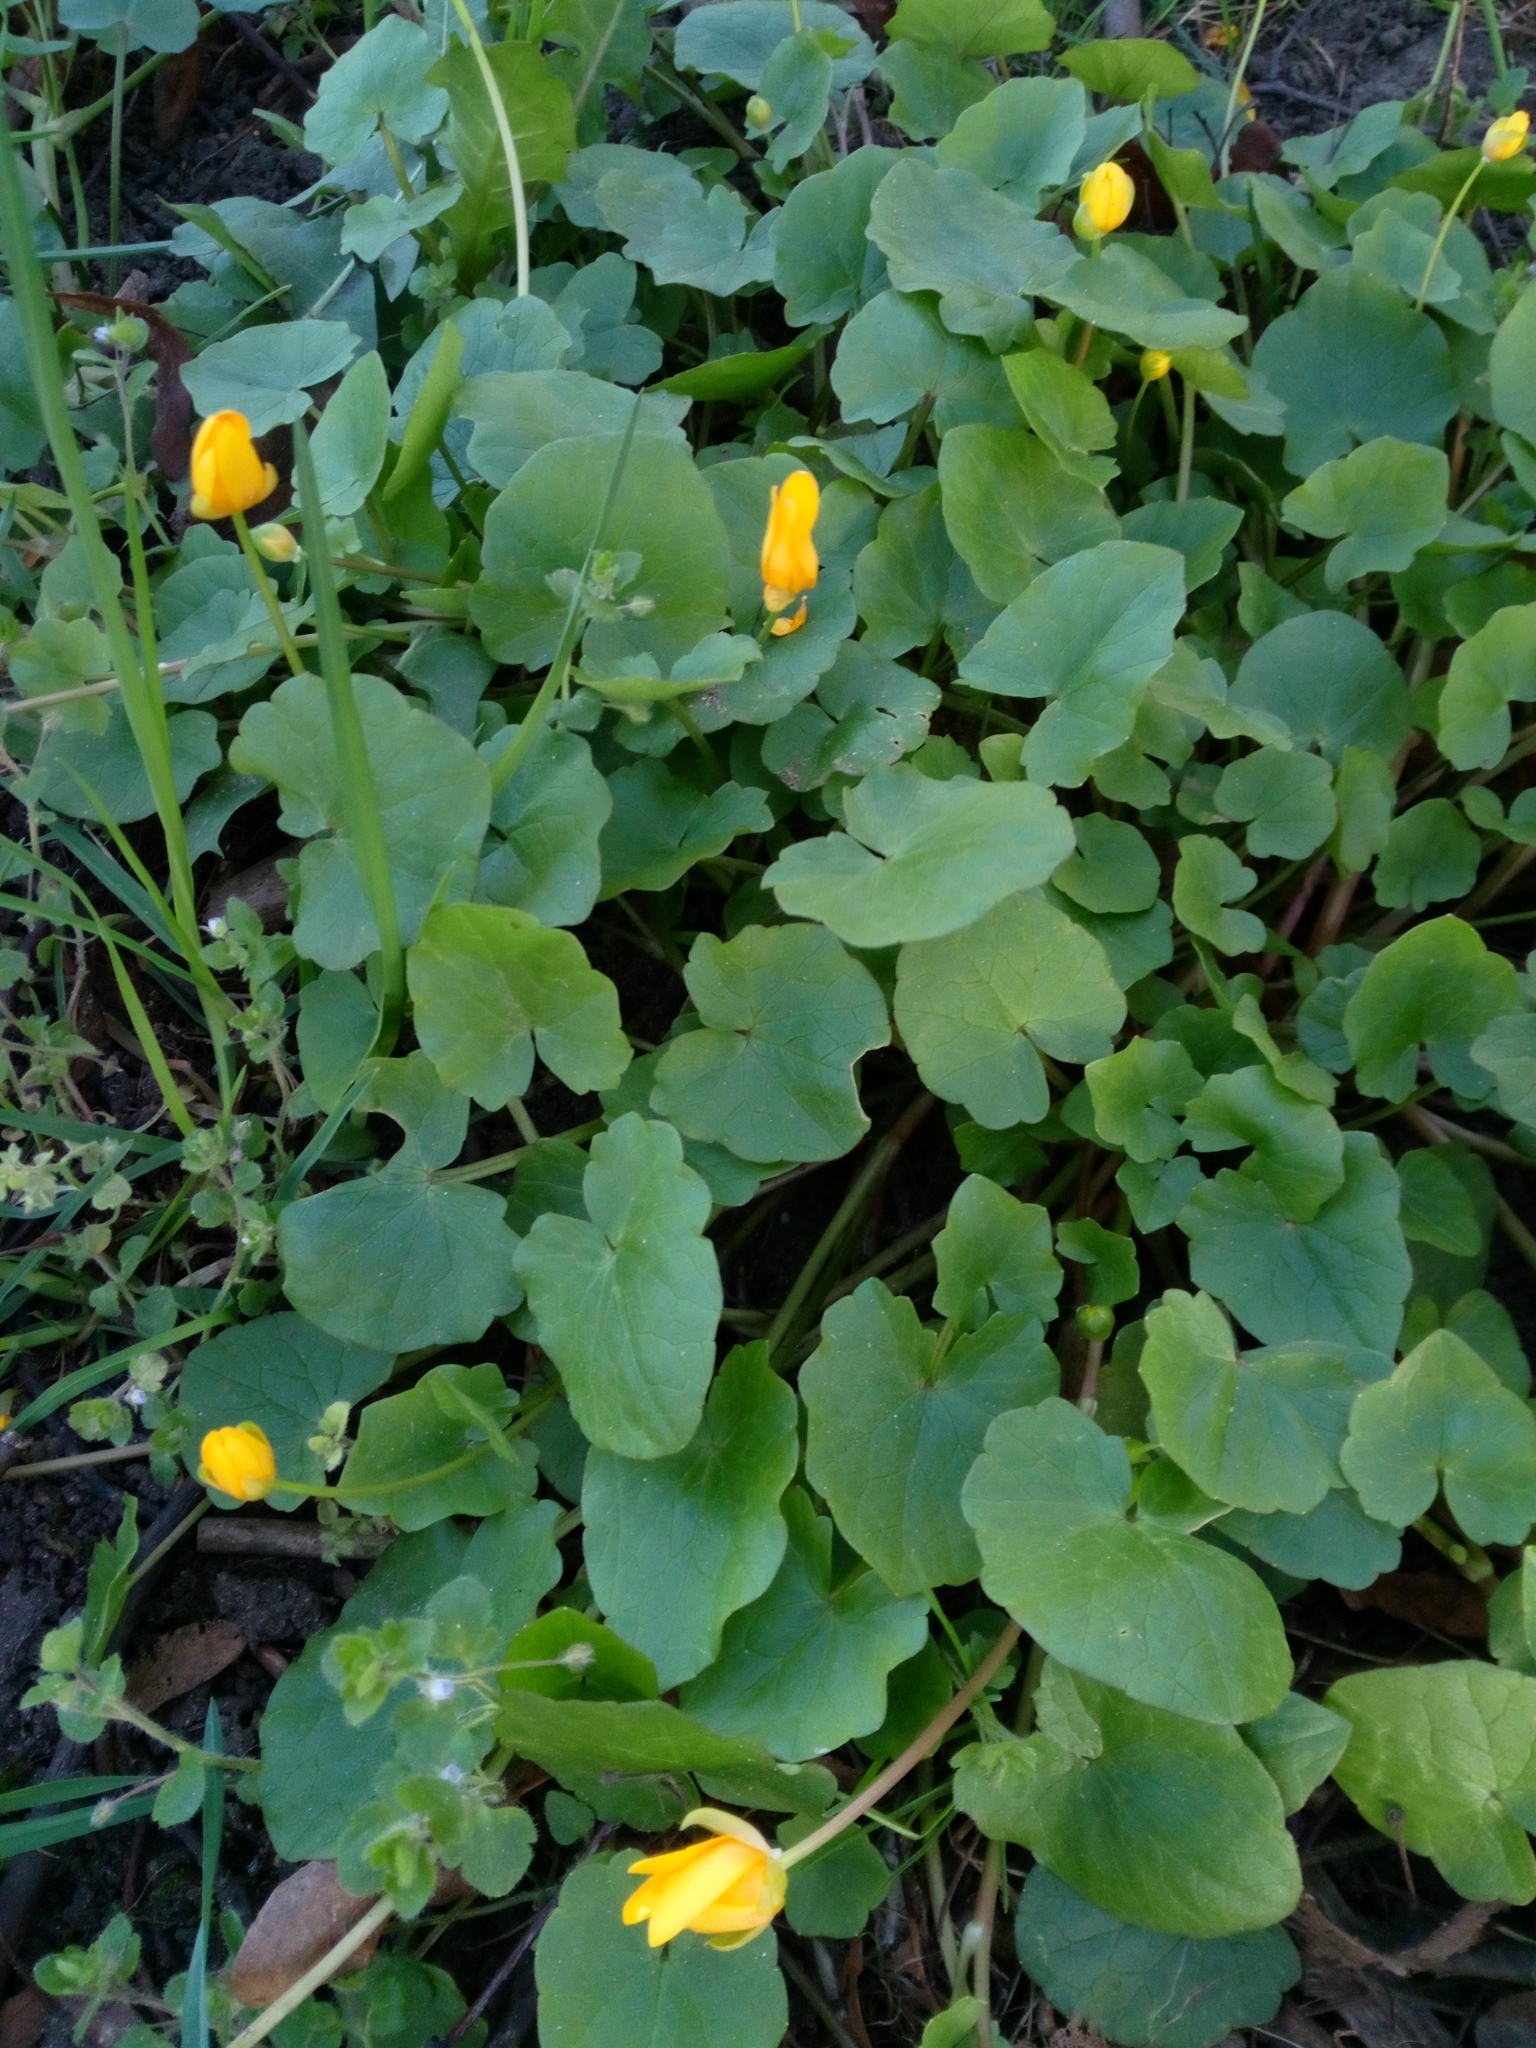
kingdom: Plantae
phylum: Tracheophyta
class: Magnoliopsida
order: Ranunculales
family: Ranunculaceae
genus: Ficaria
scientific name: Ficaria verna
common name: Lesser celandine
